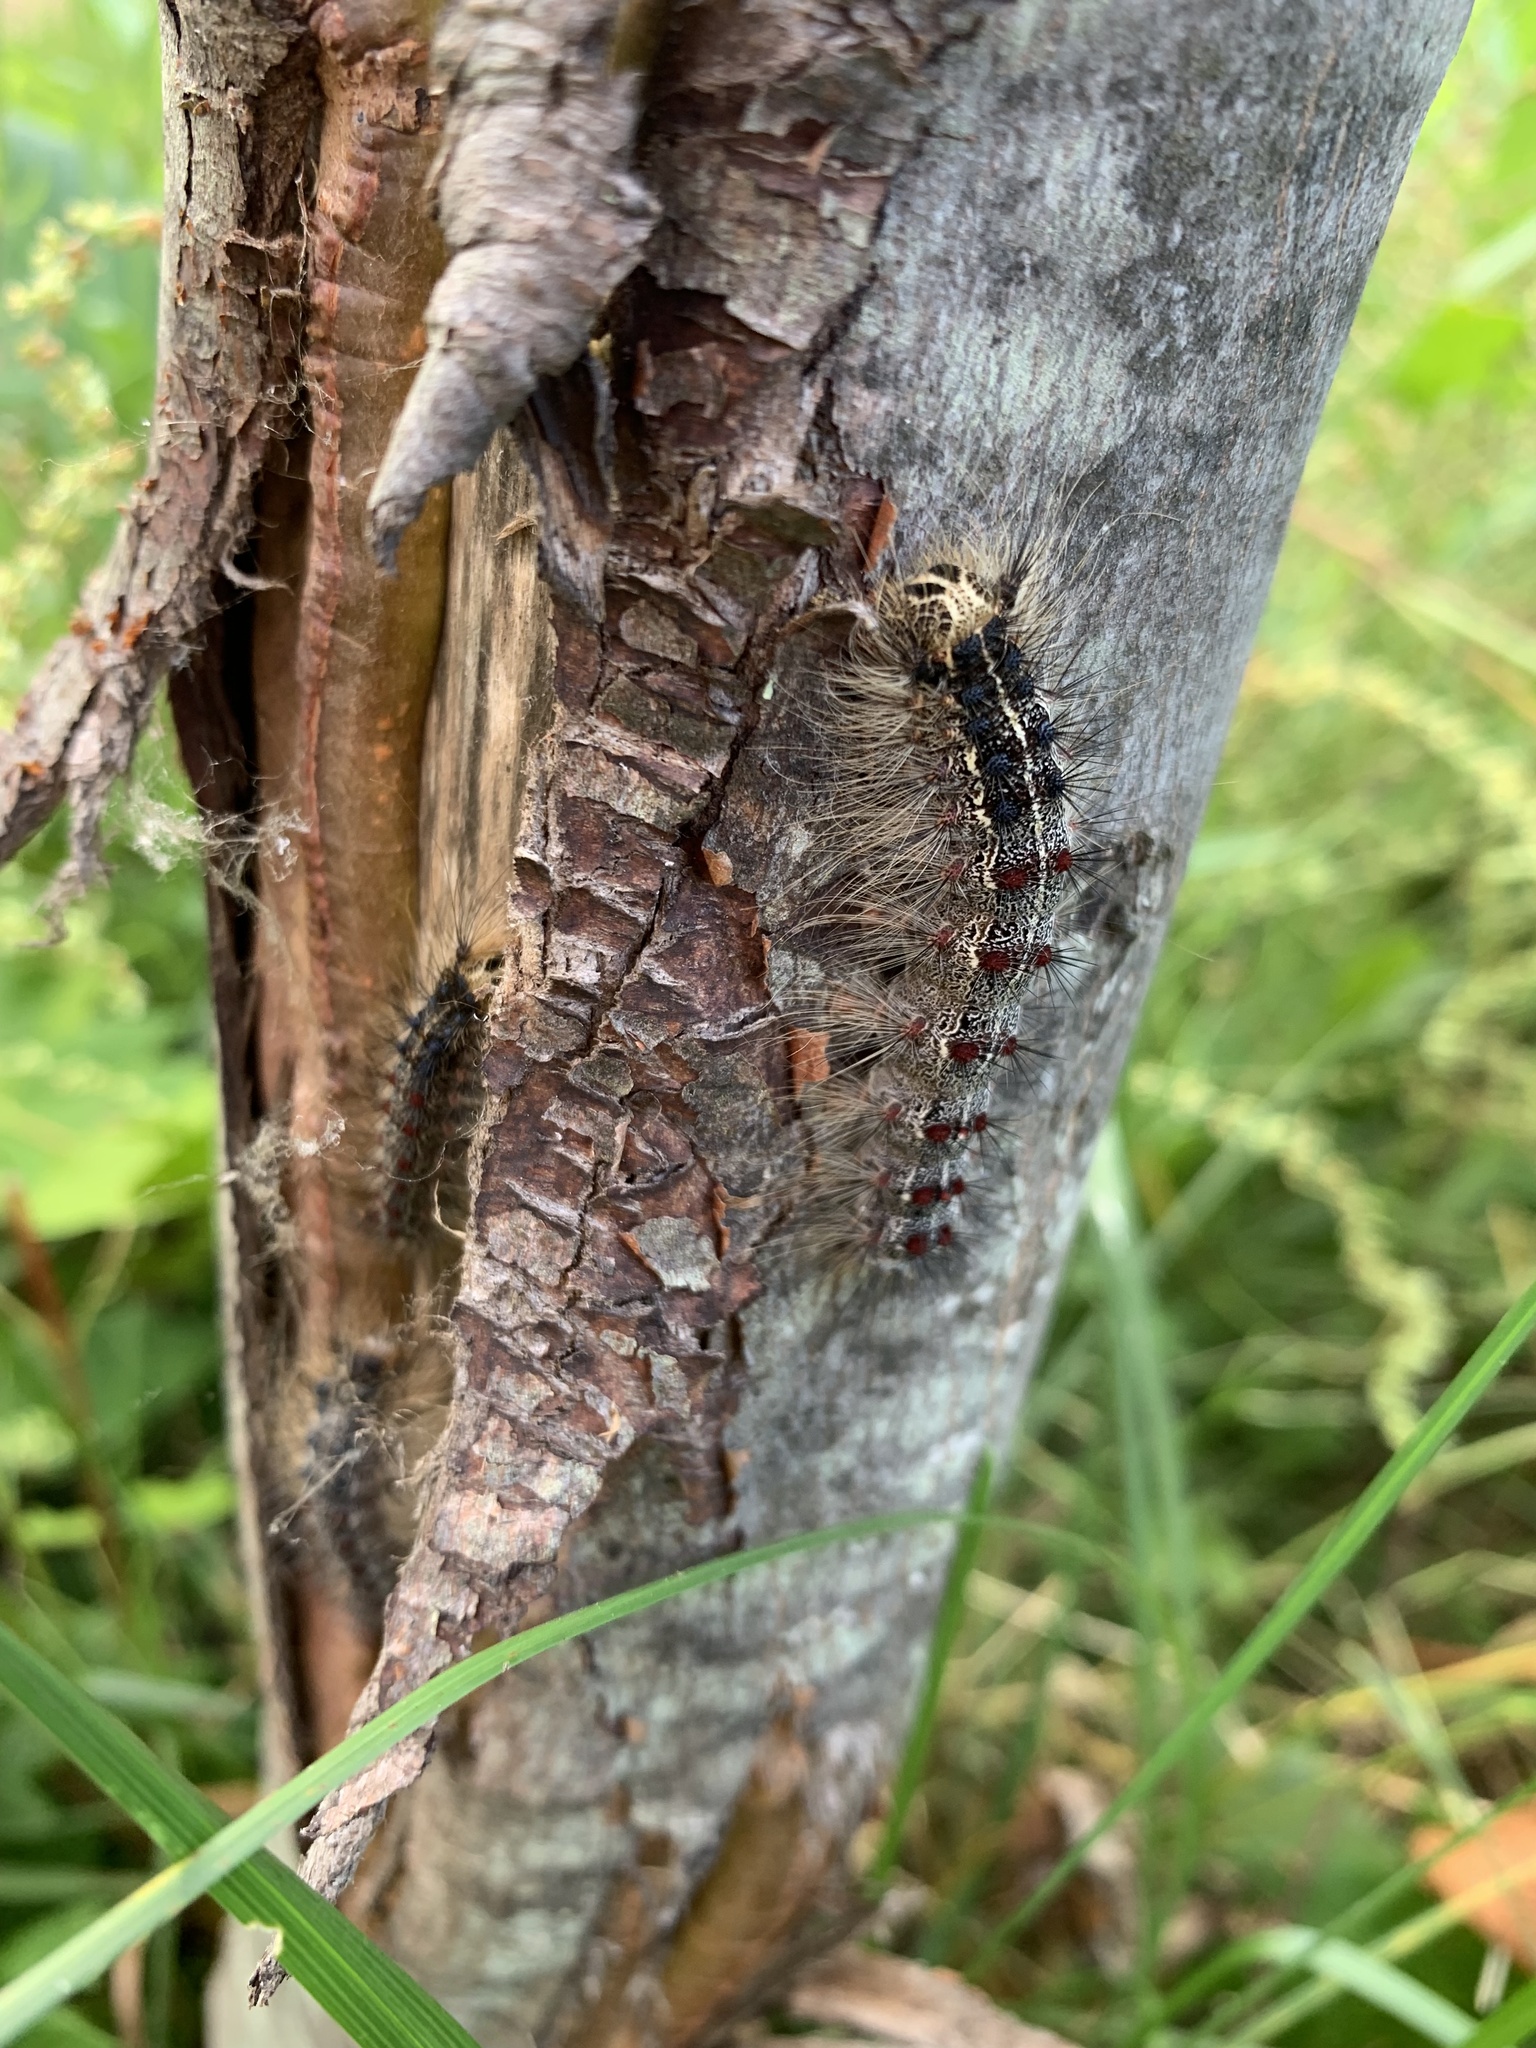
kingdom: Animalia
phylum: Arthropoda
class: Insecta
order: Lepidoptera
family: Erebidae
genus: Lymantria
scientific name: Lymantria dispar
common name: Gypsy moth
